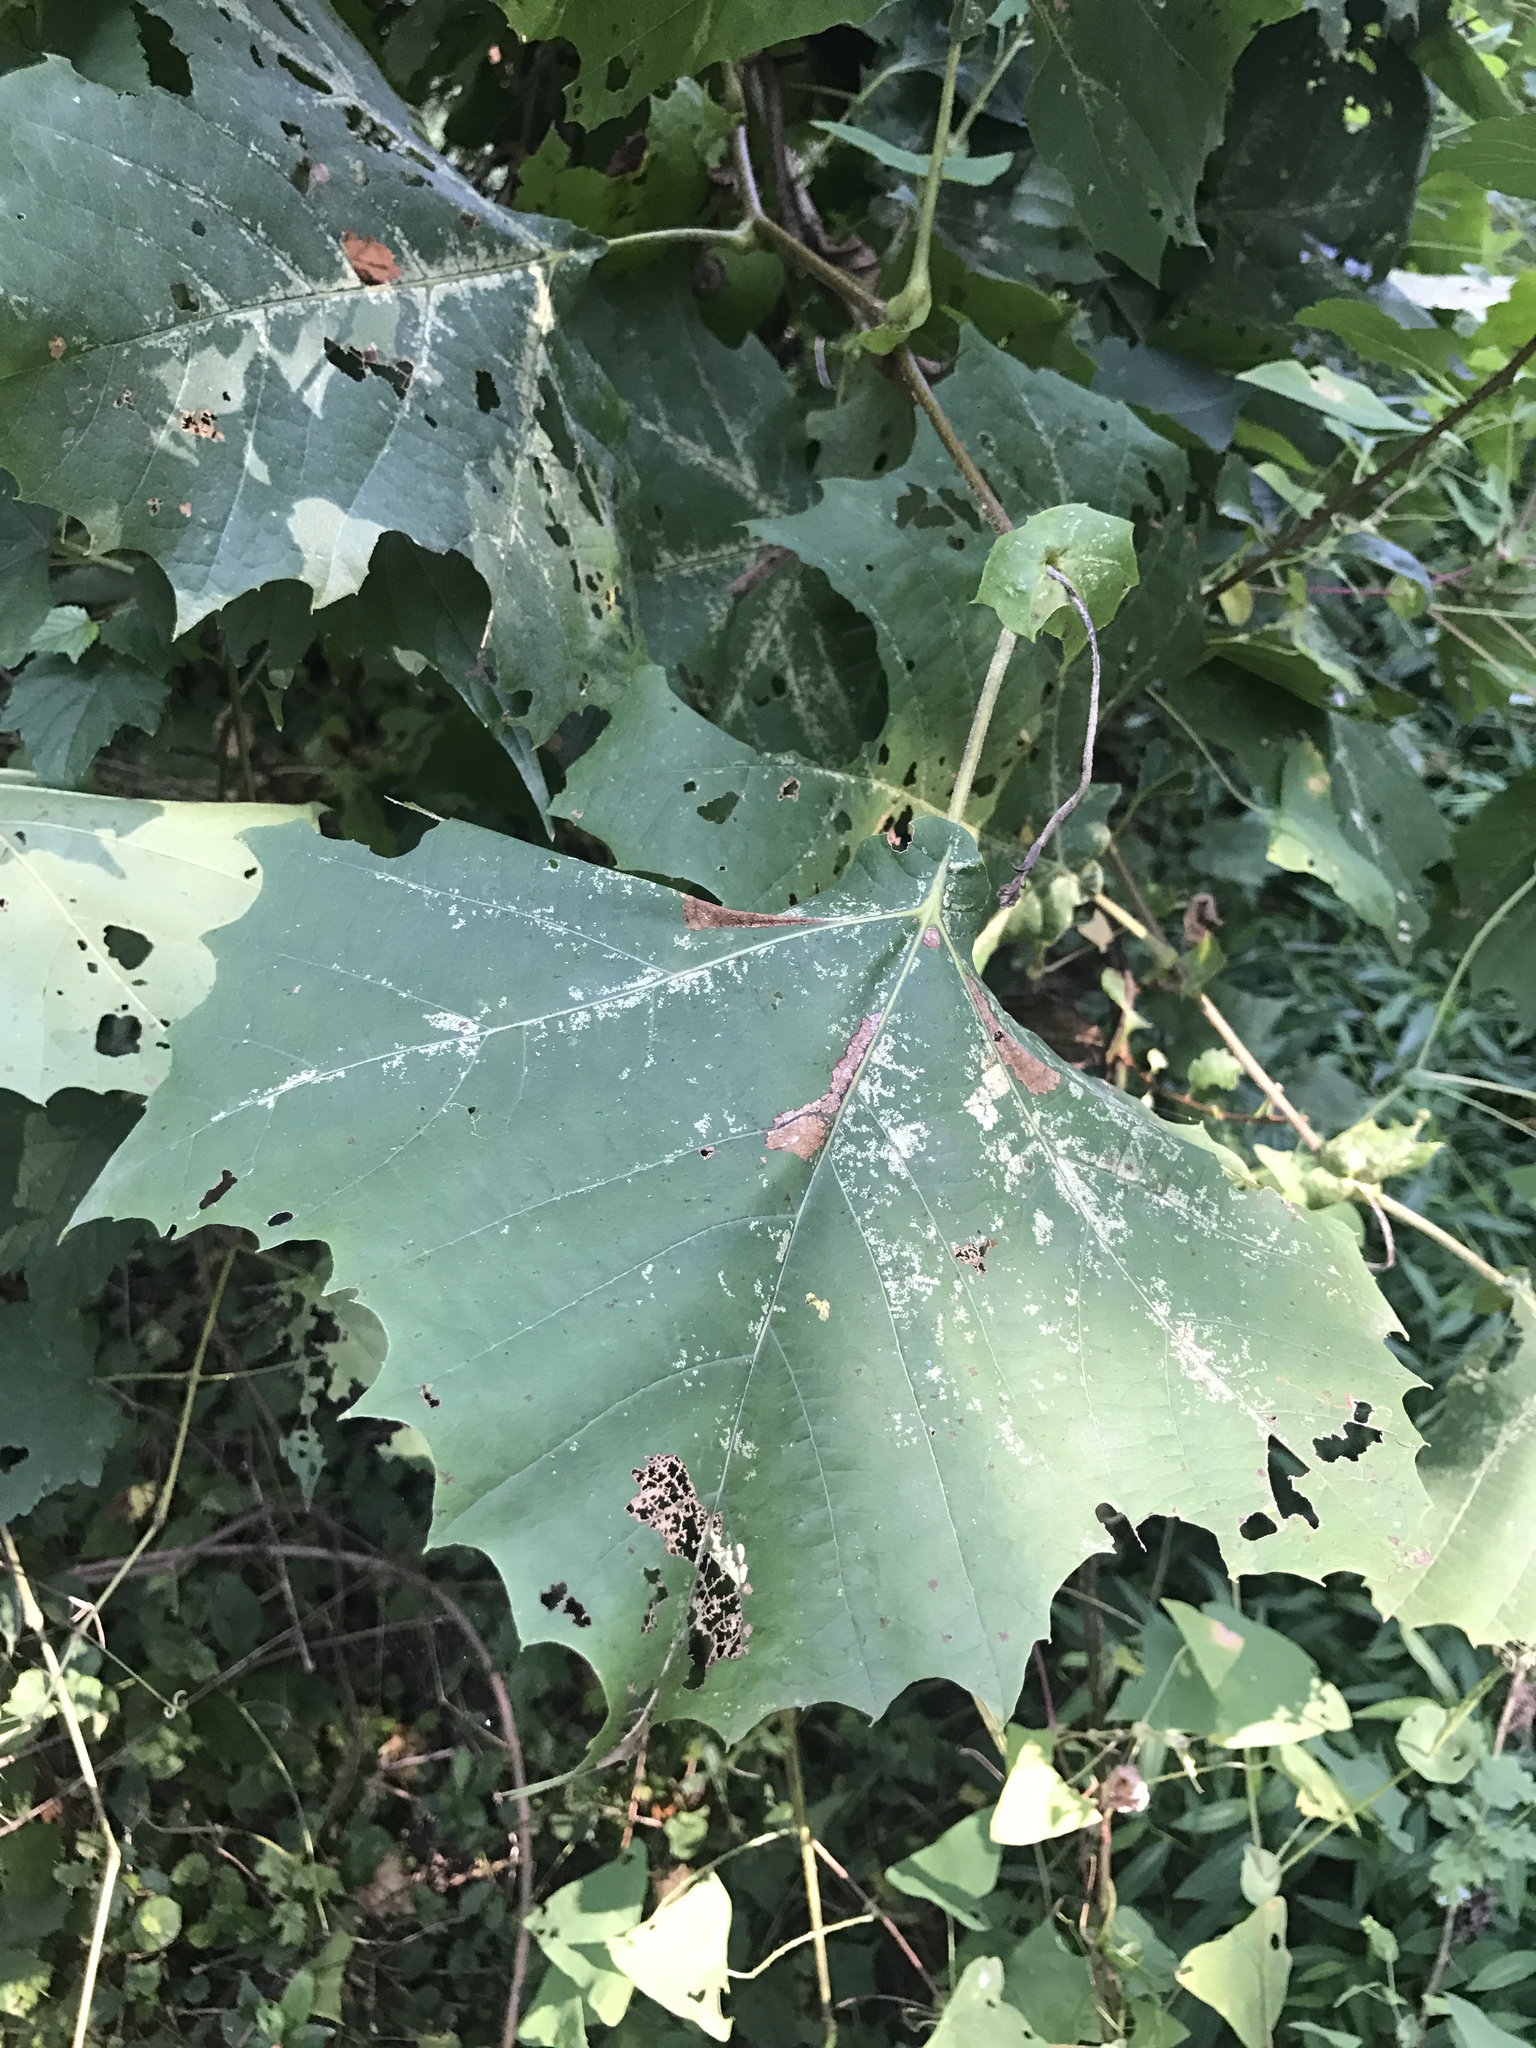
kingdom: Plantae
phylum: Tracheophyta
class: Magnoliopsida
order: Proteales
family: Platanaceae
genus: Platanus
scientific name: Platanus occidentalis
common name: American sycamore
